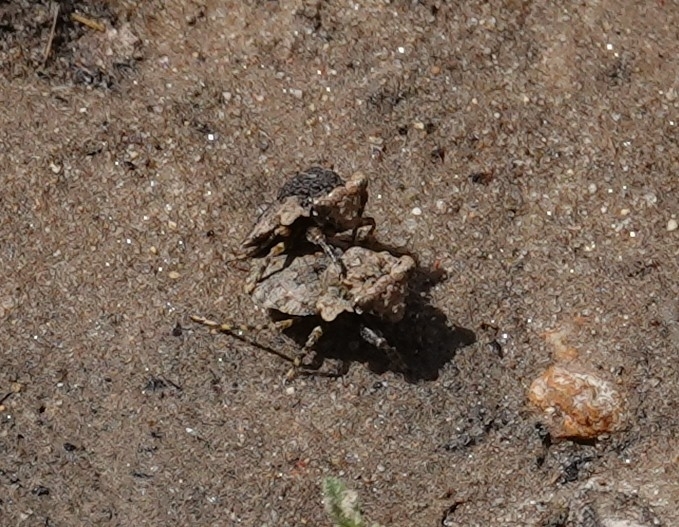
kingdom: Animalia
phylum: Arthropoda
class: Insecta
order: Hemiptera
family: Gelastocoridae
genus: Gelastocoris
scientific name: Gelastocoris oculatus
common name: Toad bug
